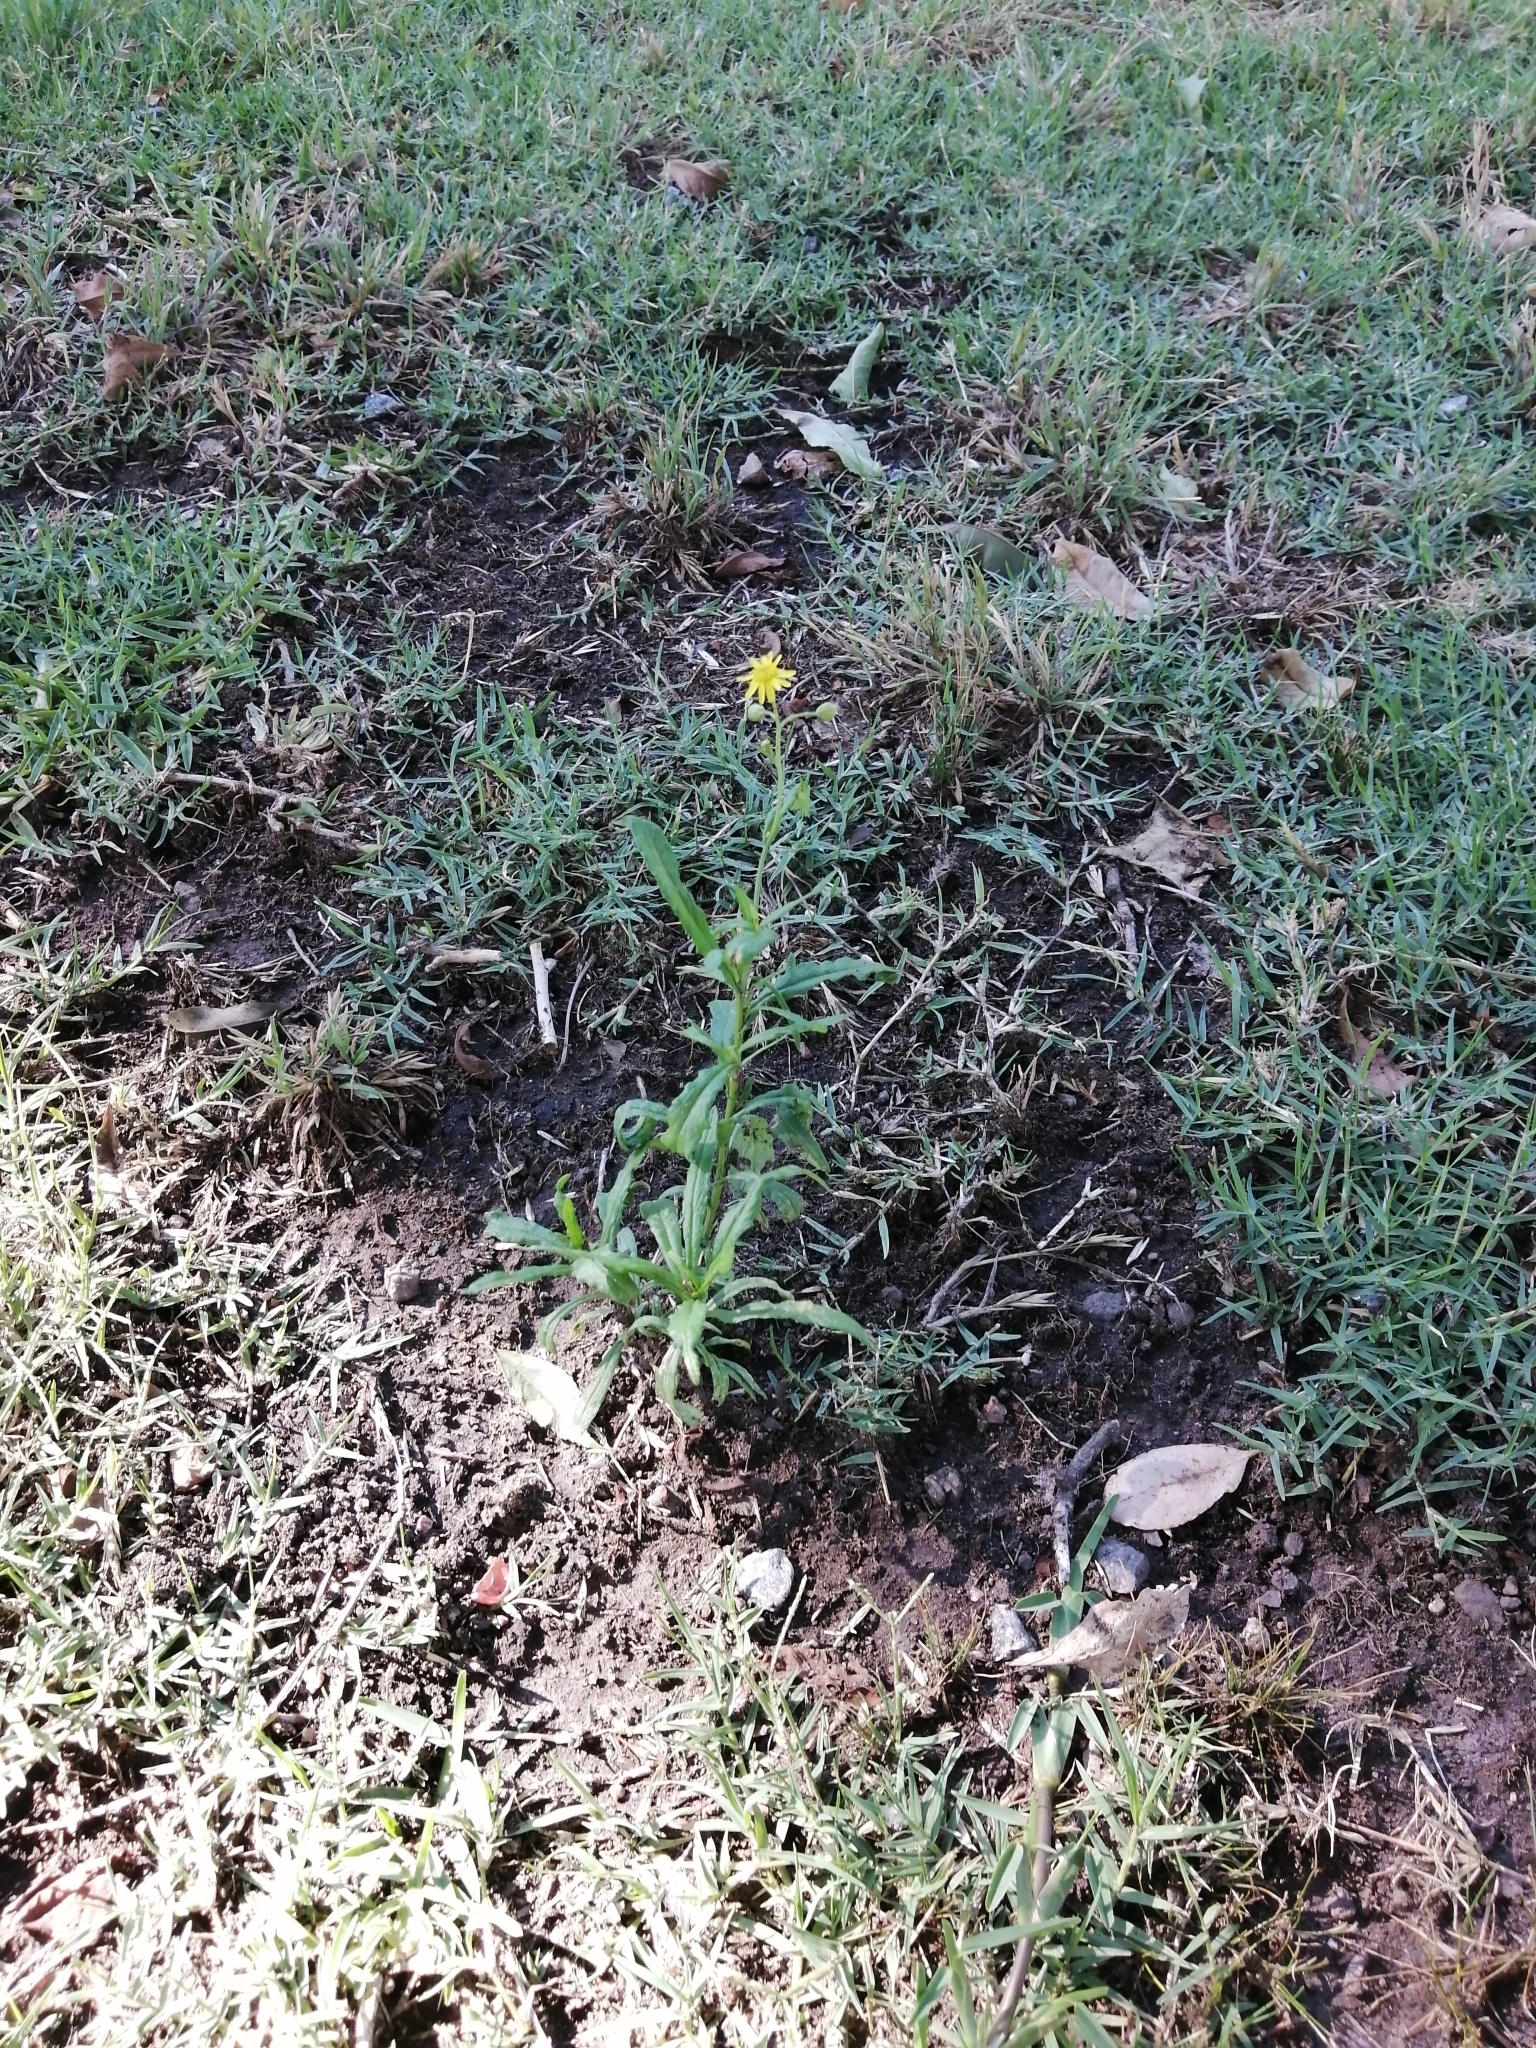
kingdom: Plantae
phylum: Tracheophyta
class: Magnoliopsida
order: Asterales
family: Asteraceae
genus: Senecio
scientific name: Senecio madagascariensis
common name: Madagascar ragwort
